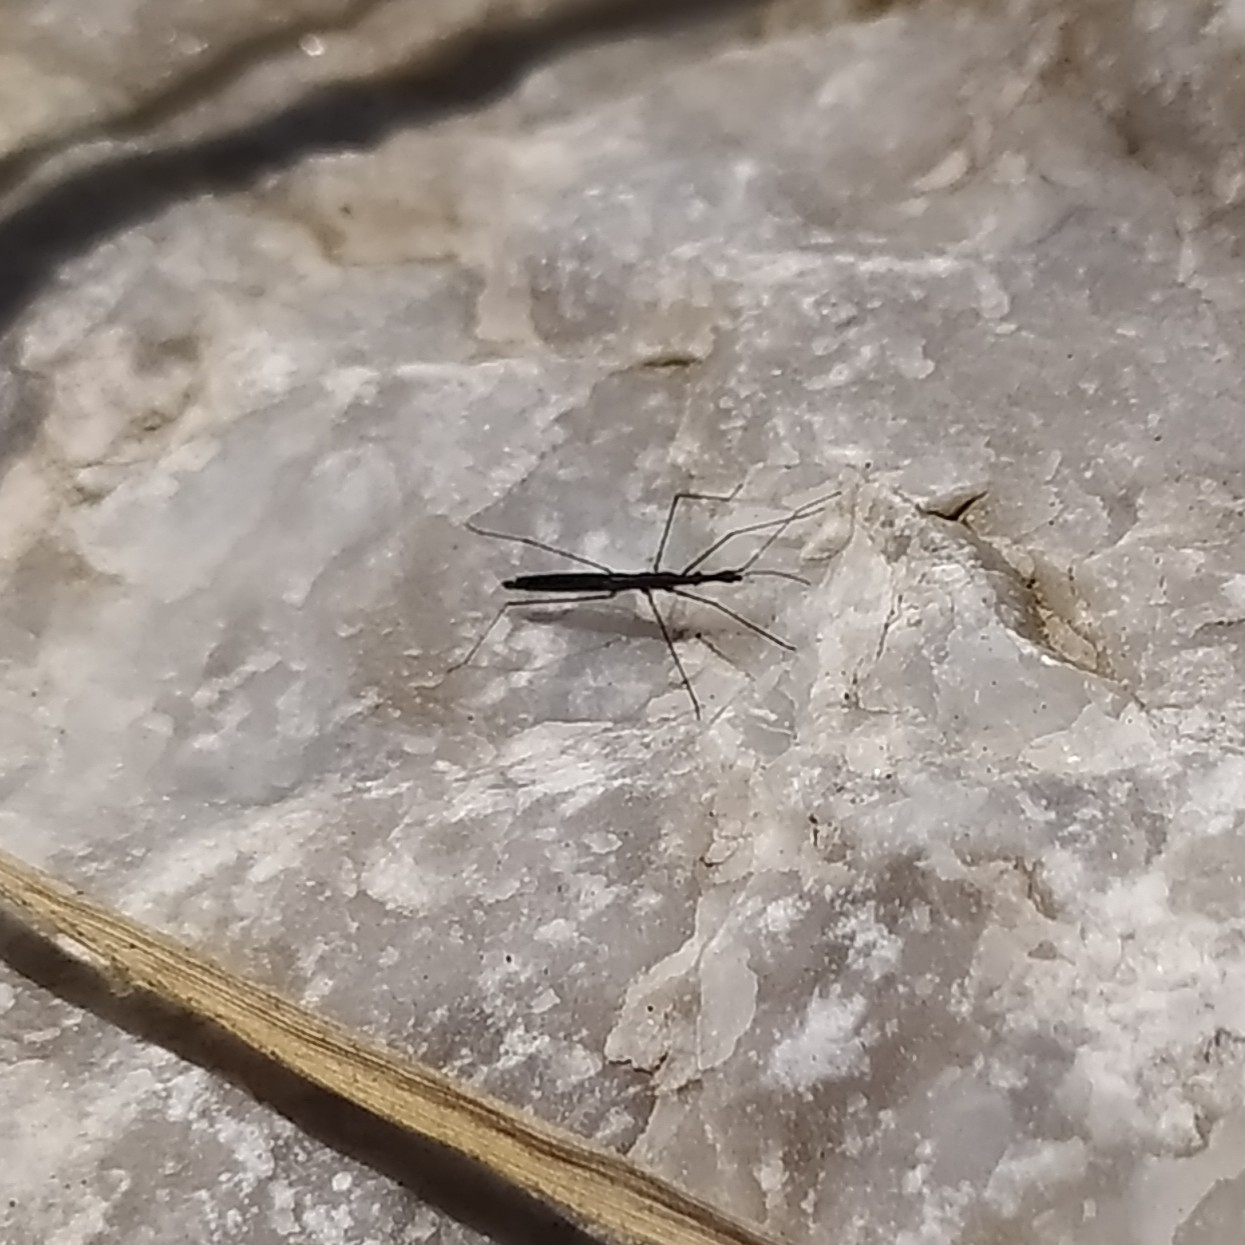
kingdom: Animalia
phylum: Arthropoda
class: Insecta
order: Hemiptera
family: Hydrometridae
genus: Hydrometra
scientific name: Hydrometra stagnorum
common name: Water measurer
